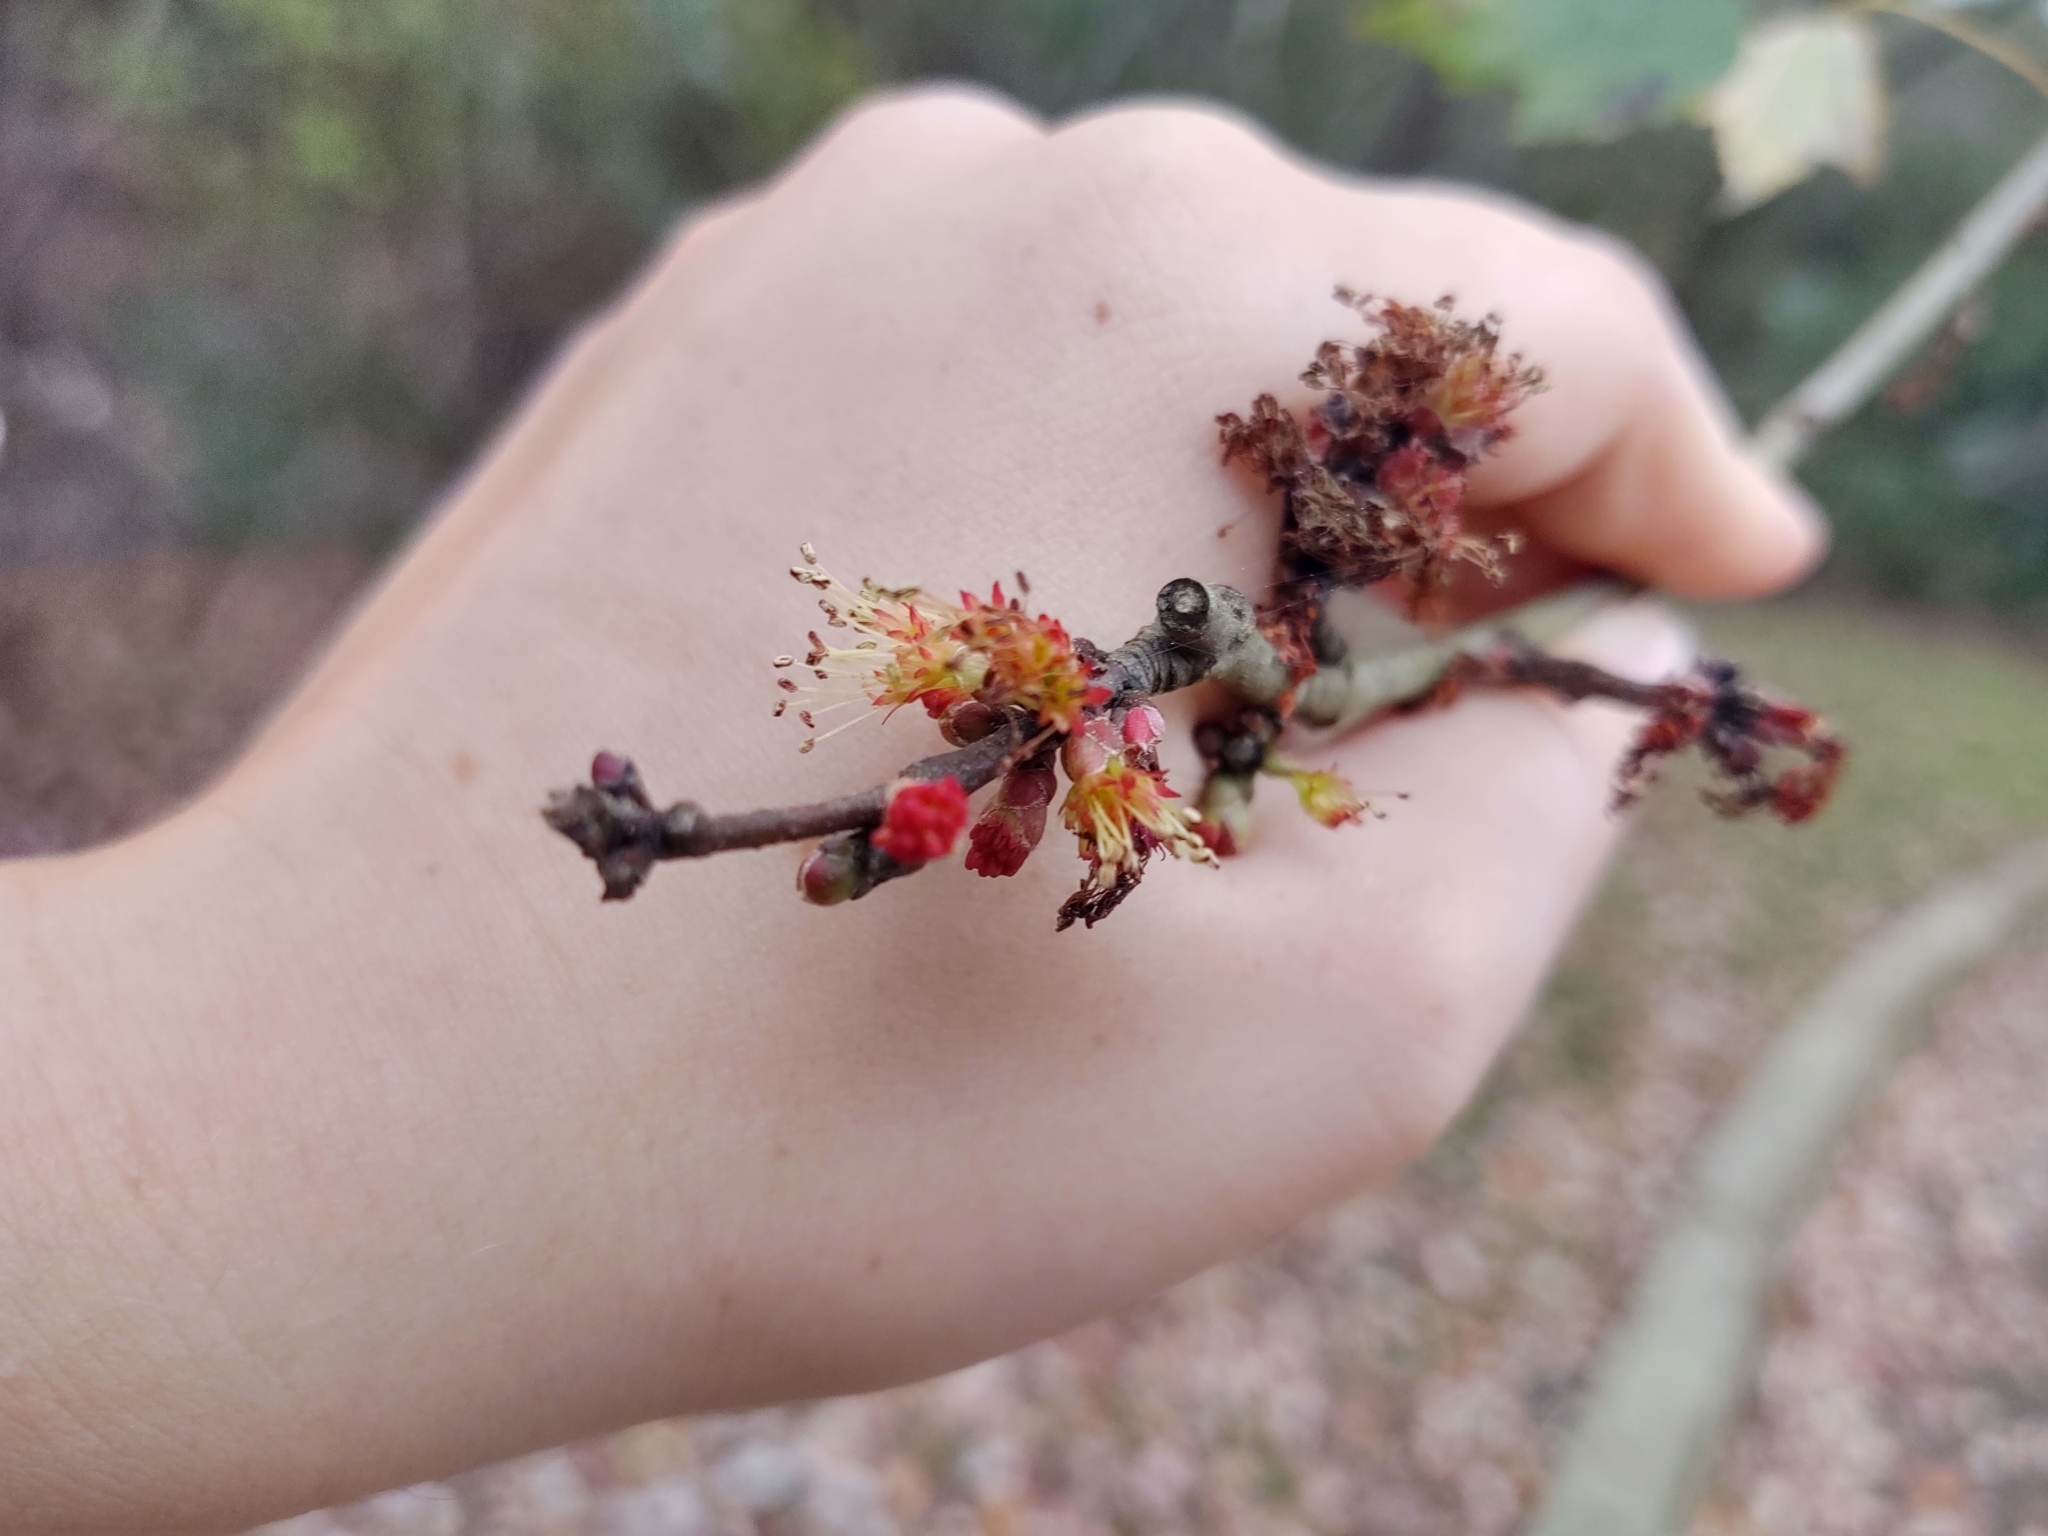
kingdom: Plantae
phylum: Tracheophyta
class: Magnoliopsida
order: Sapindales
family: Sapindaceae
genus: Acer
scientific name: Acer rubrum
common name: Red maple
